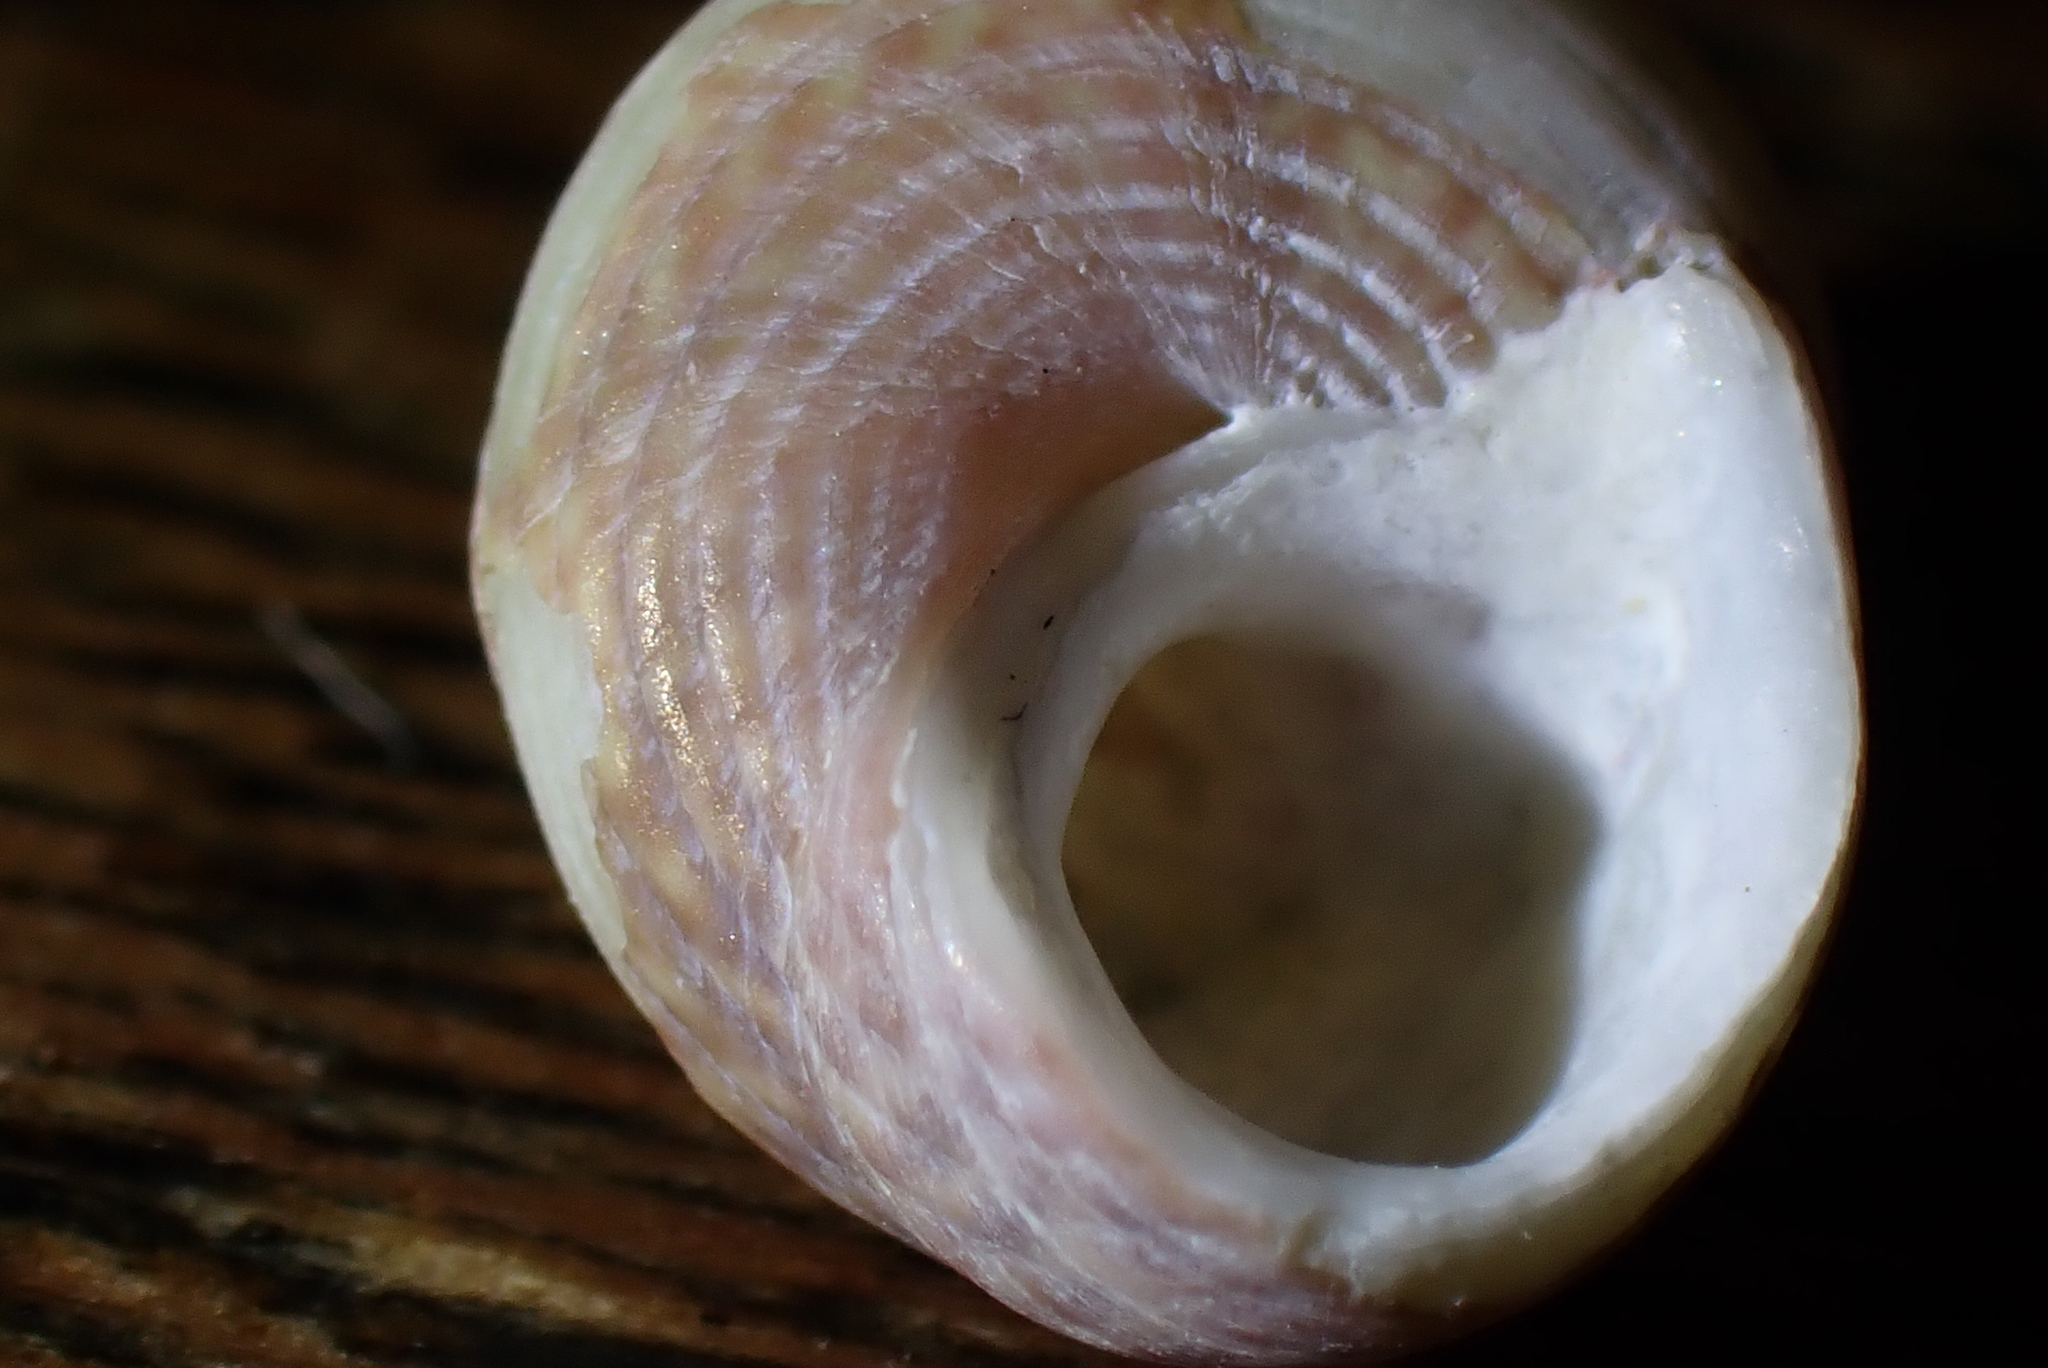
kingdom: Animalia
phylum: Mollusca
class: Gastropoda
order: Trochida
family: Trochidae
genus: Micrelenchus
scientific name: Micrelenchus sanguineus
